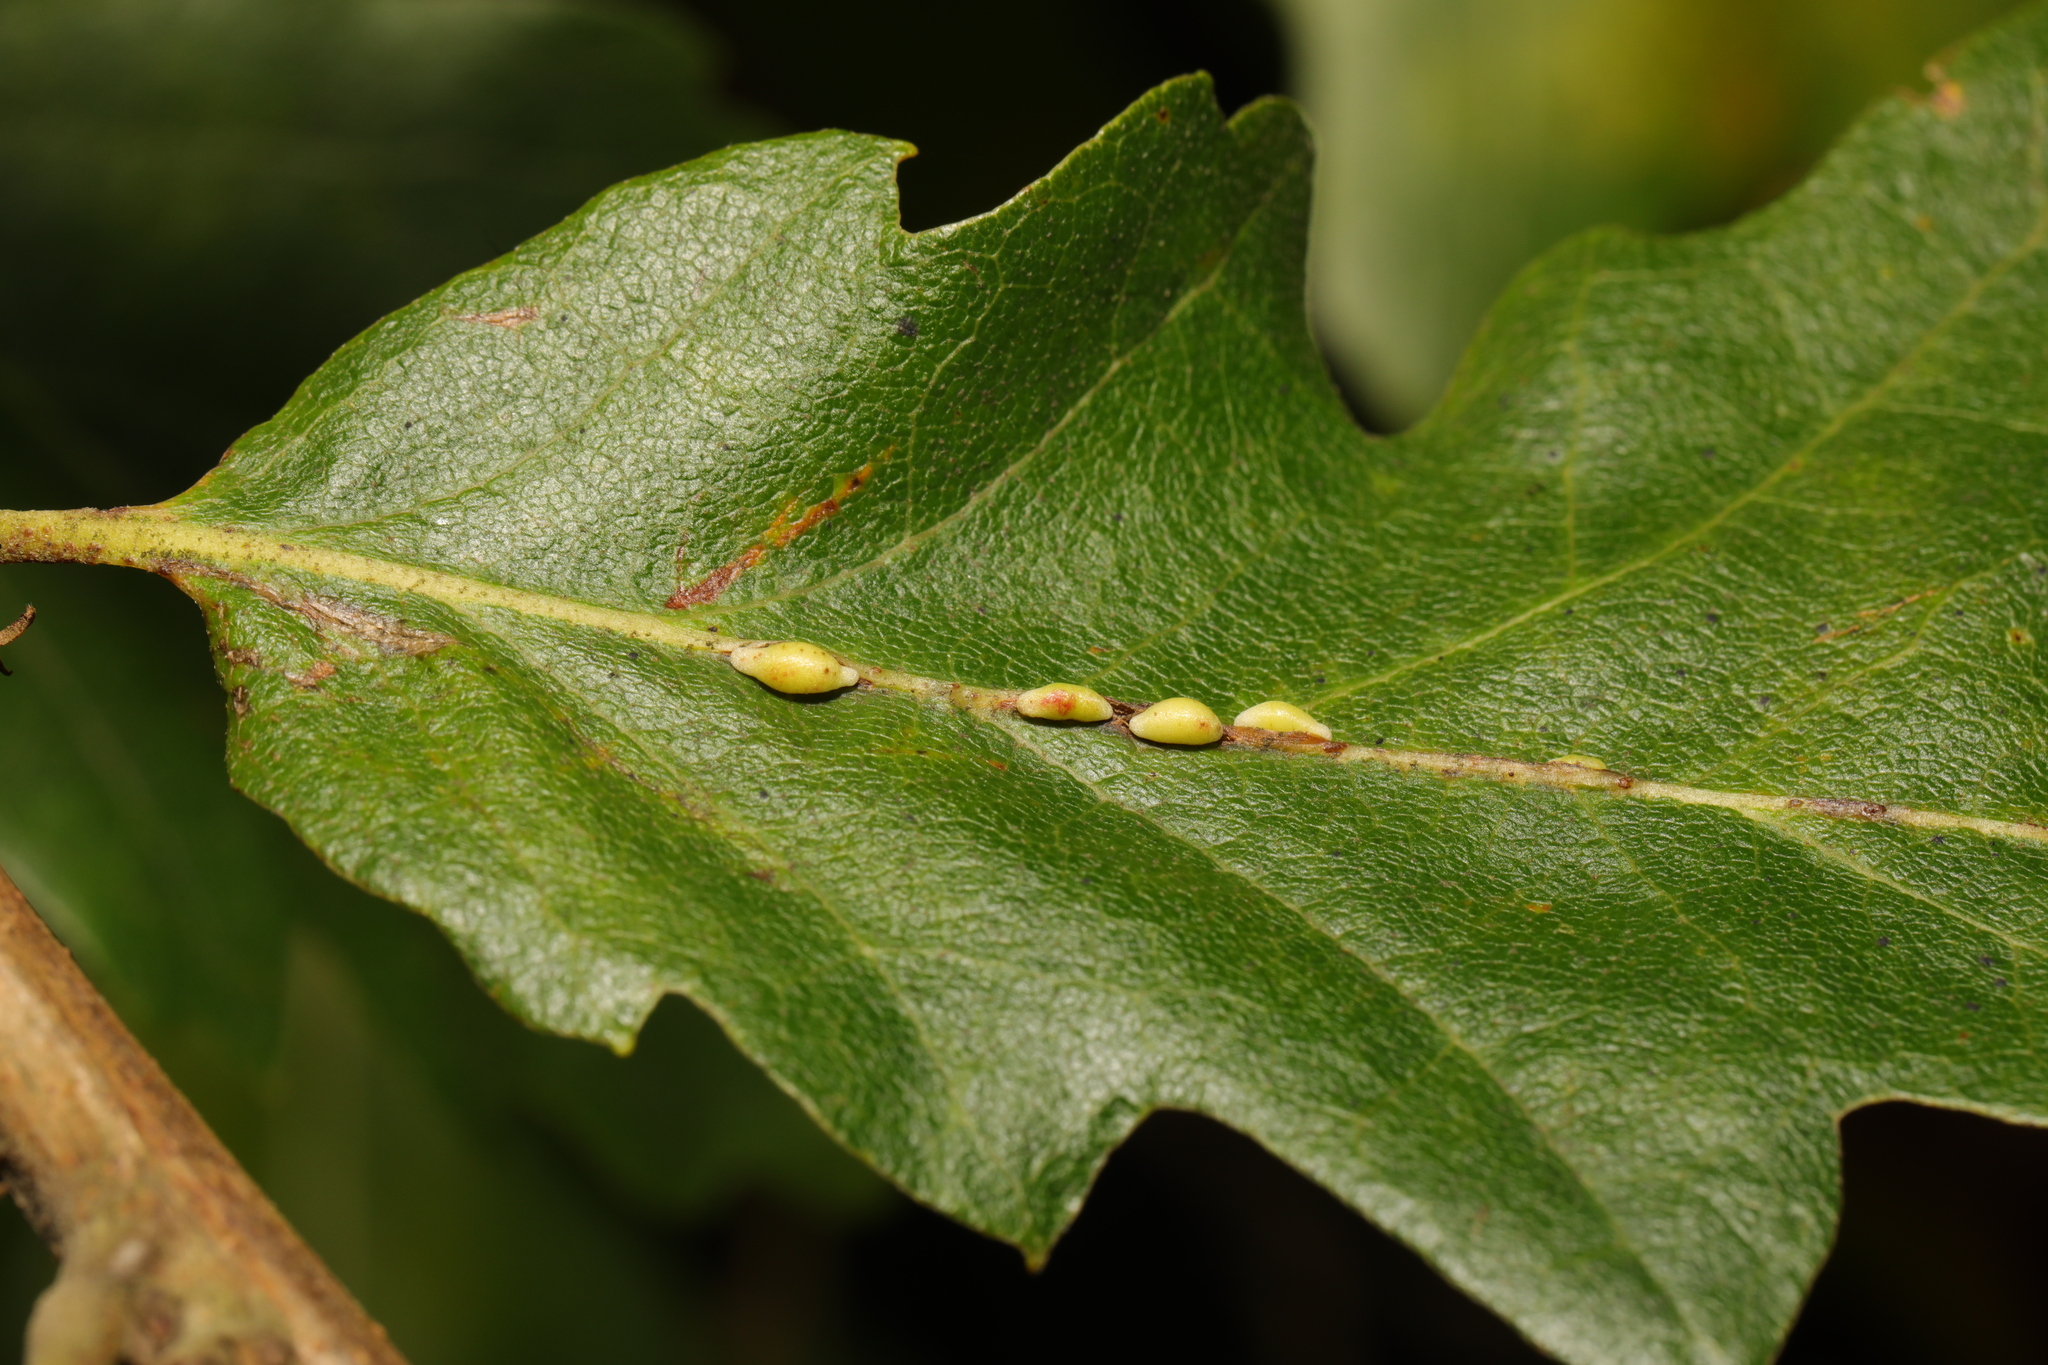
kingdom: Animalia
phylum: Arthropoda
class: Insecta
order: Hymenoptera
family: Cynipidae
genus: Neuroterus
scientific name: Neuroterus saliens
